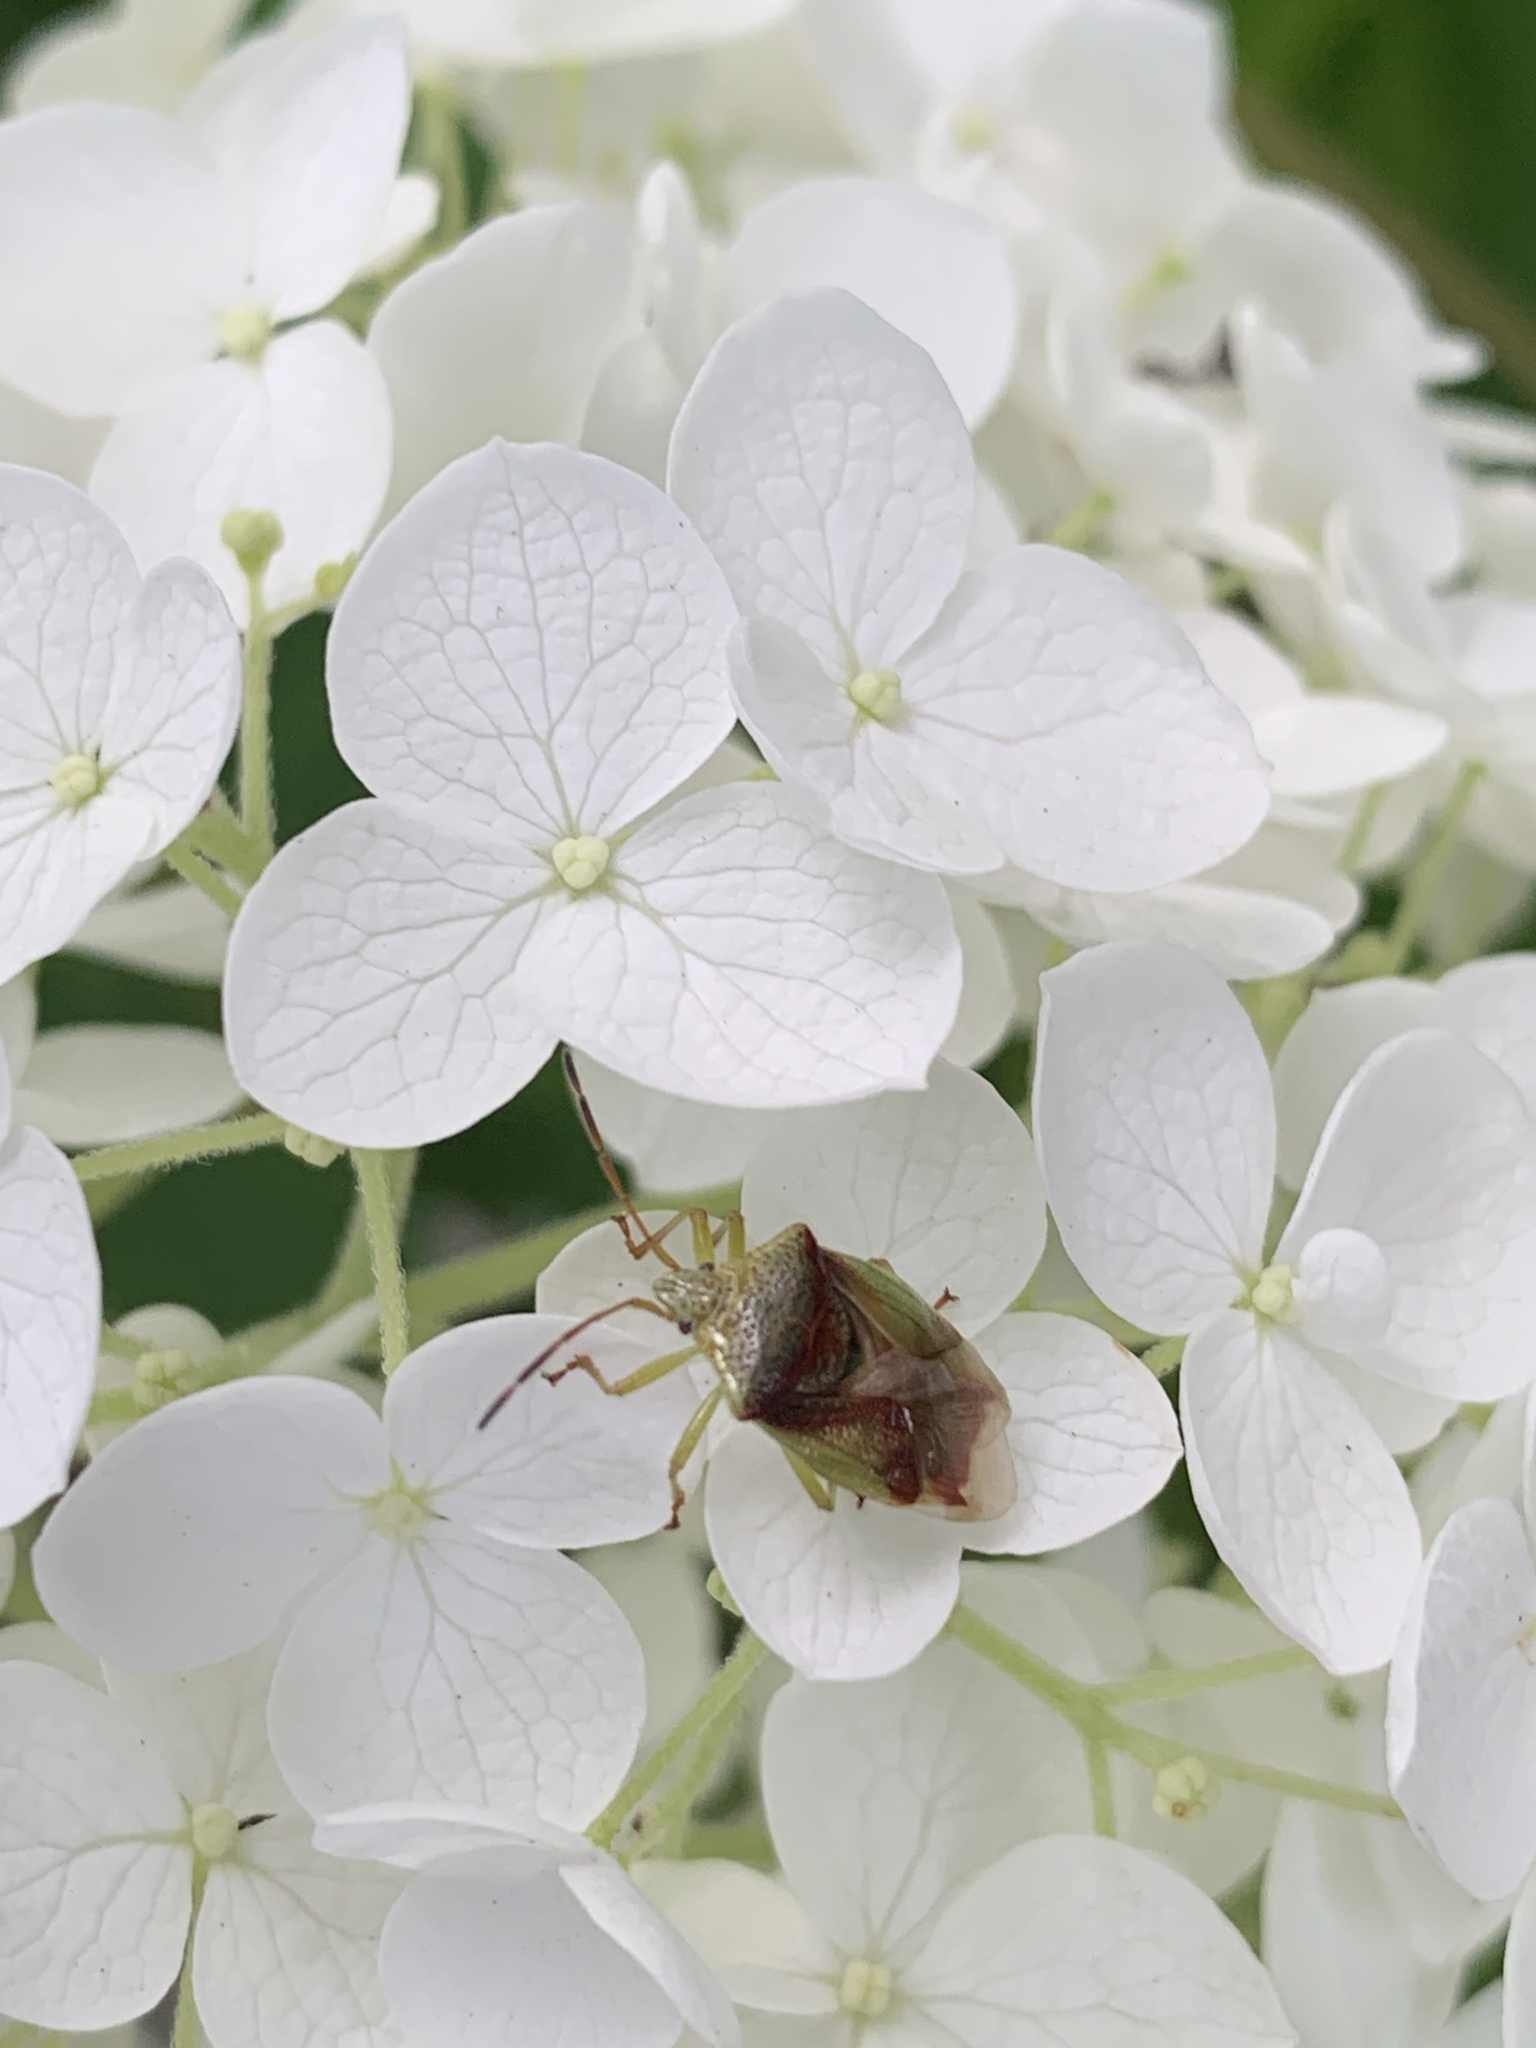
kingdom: Animalia
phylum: Arthropoda
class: Insecta
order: Hemiptera
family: Acanthosomatidae
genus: Elasmostethus
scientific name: Elasmostethus cruciatus
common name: Red-cross shield bug
